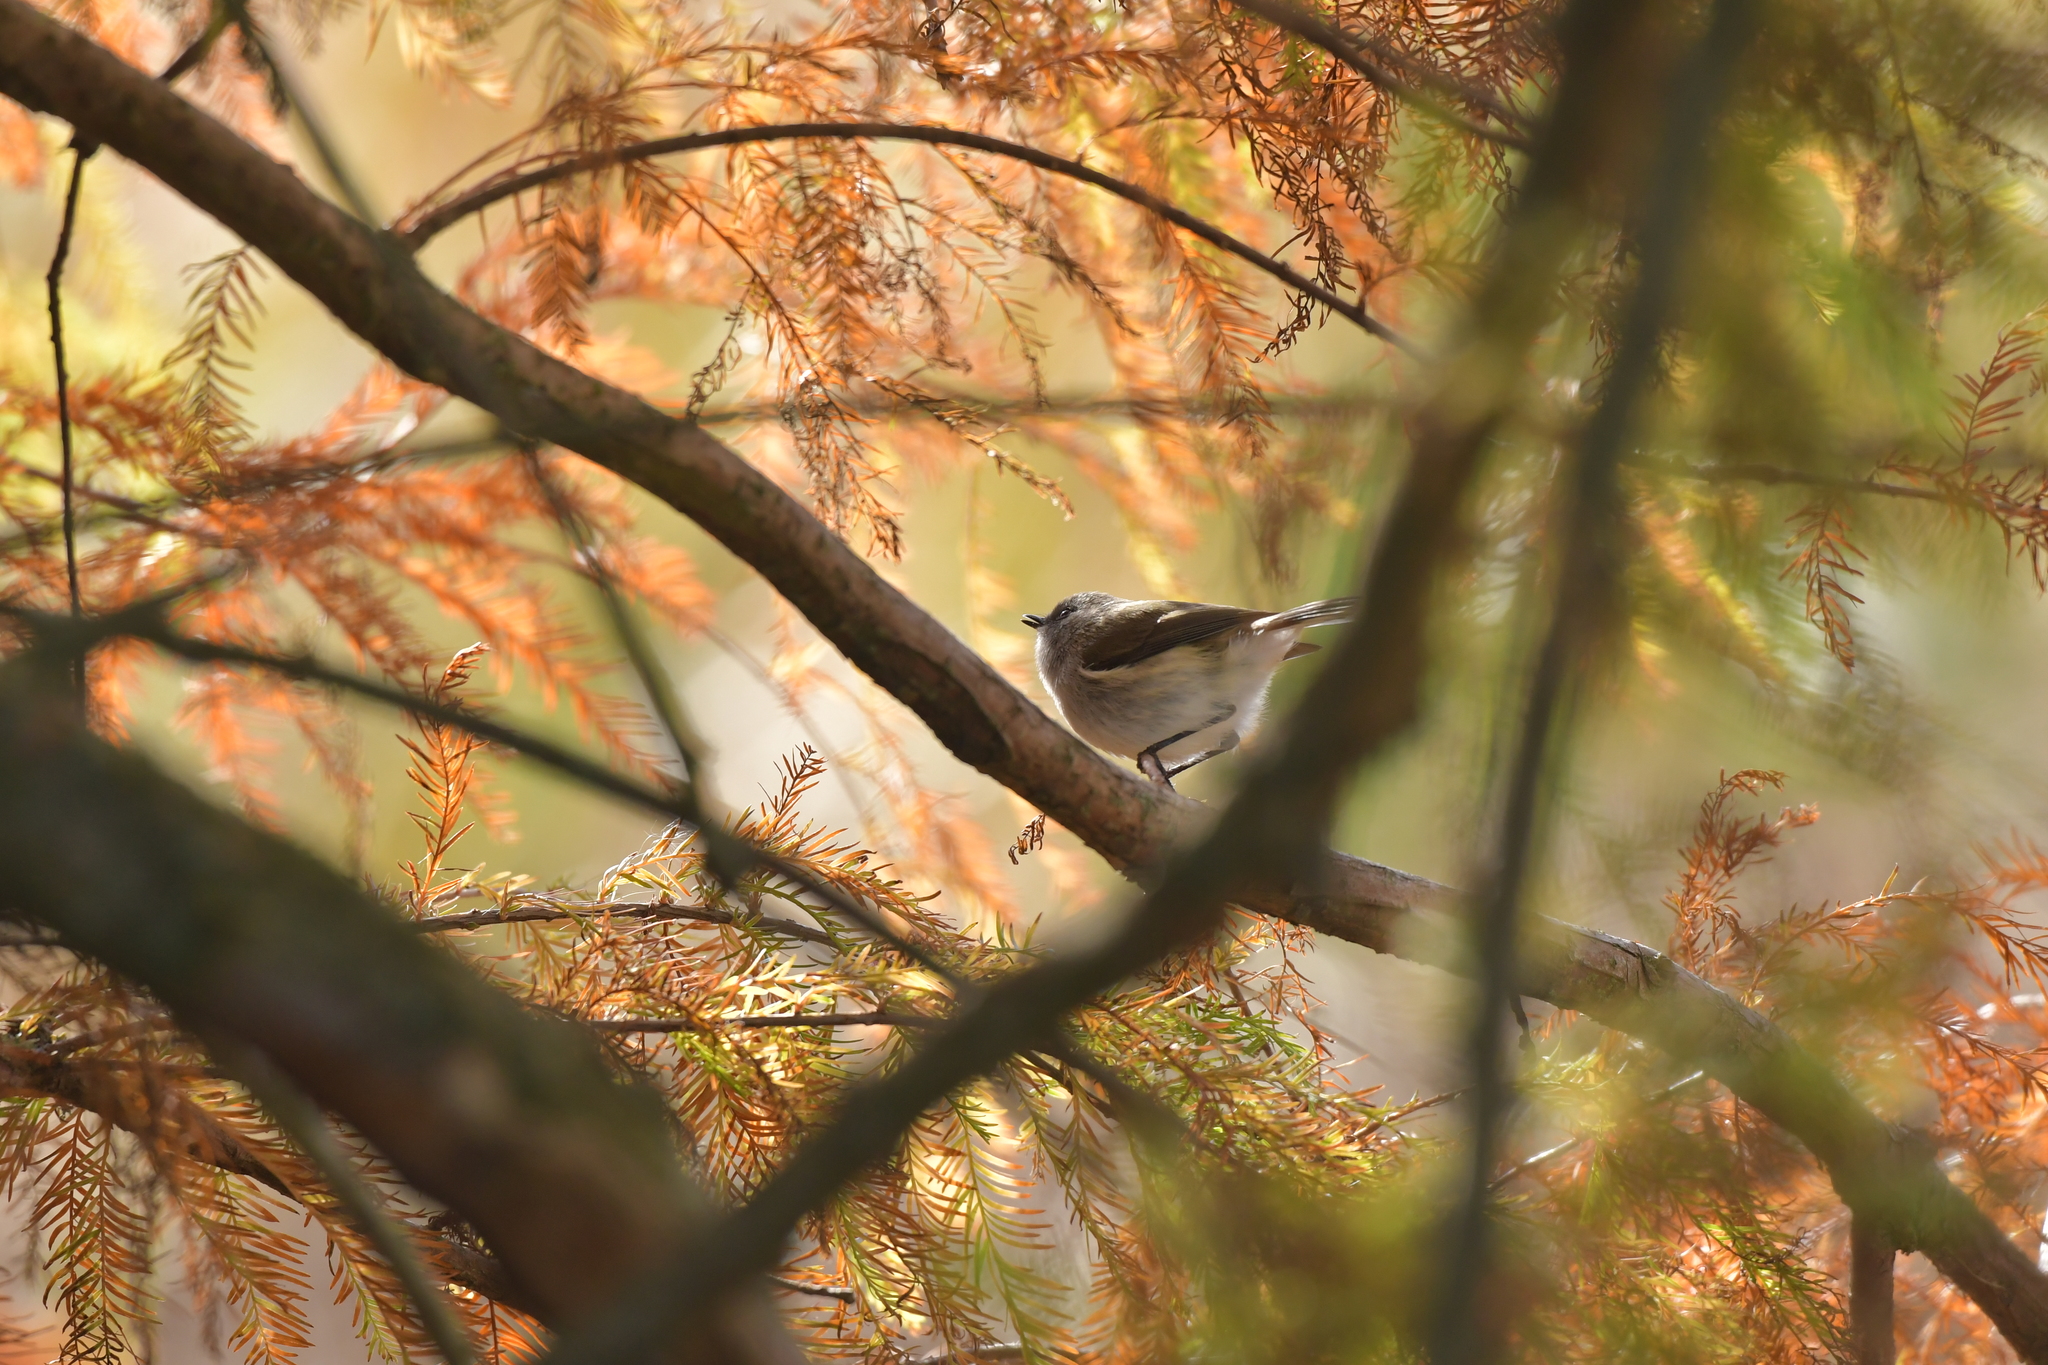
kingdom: Animalia
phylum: Chordata
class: Aves
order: Passeriformes
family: Acanthizidae
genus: Gerygone
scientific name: Gerygone igata
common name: Grey gerygone
